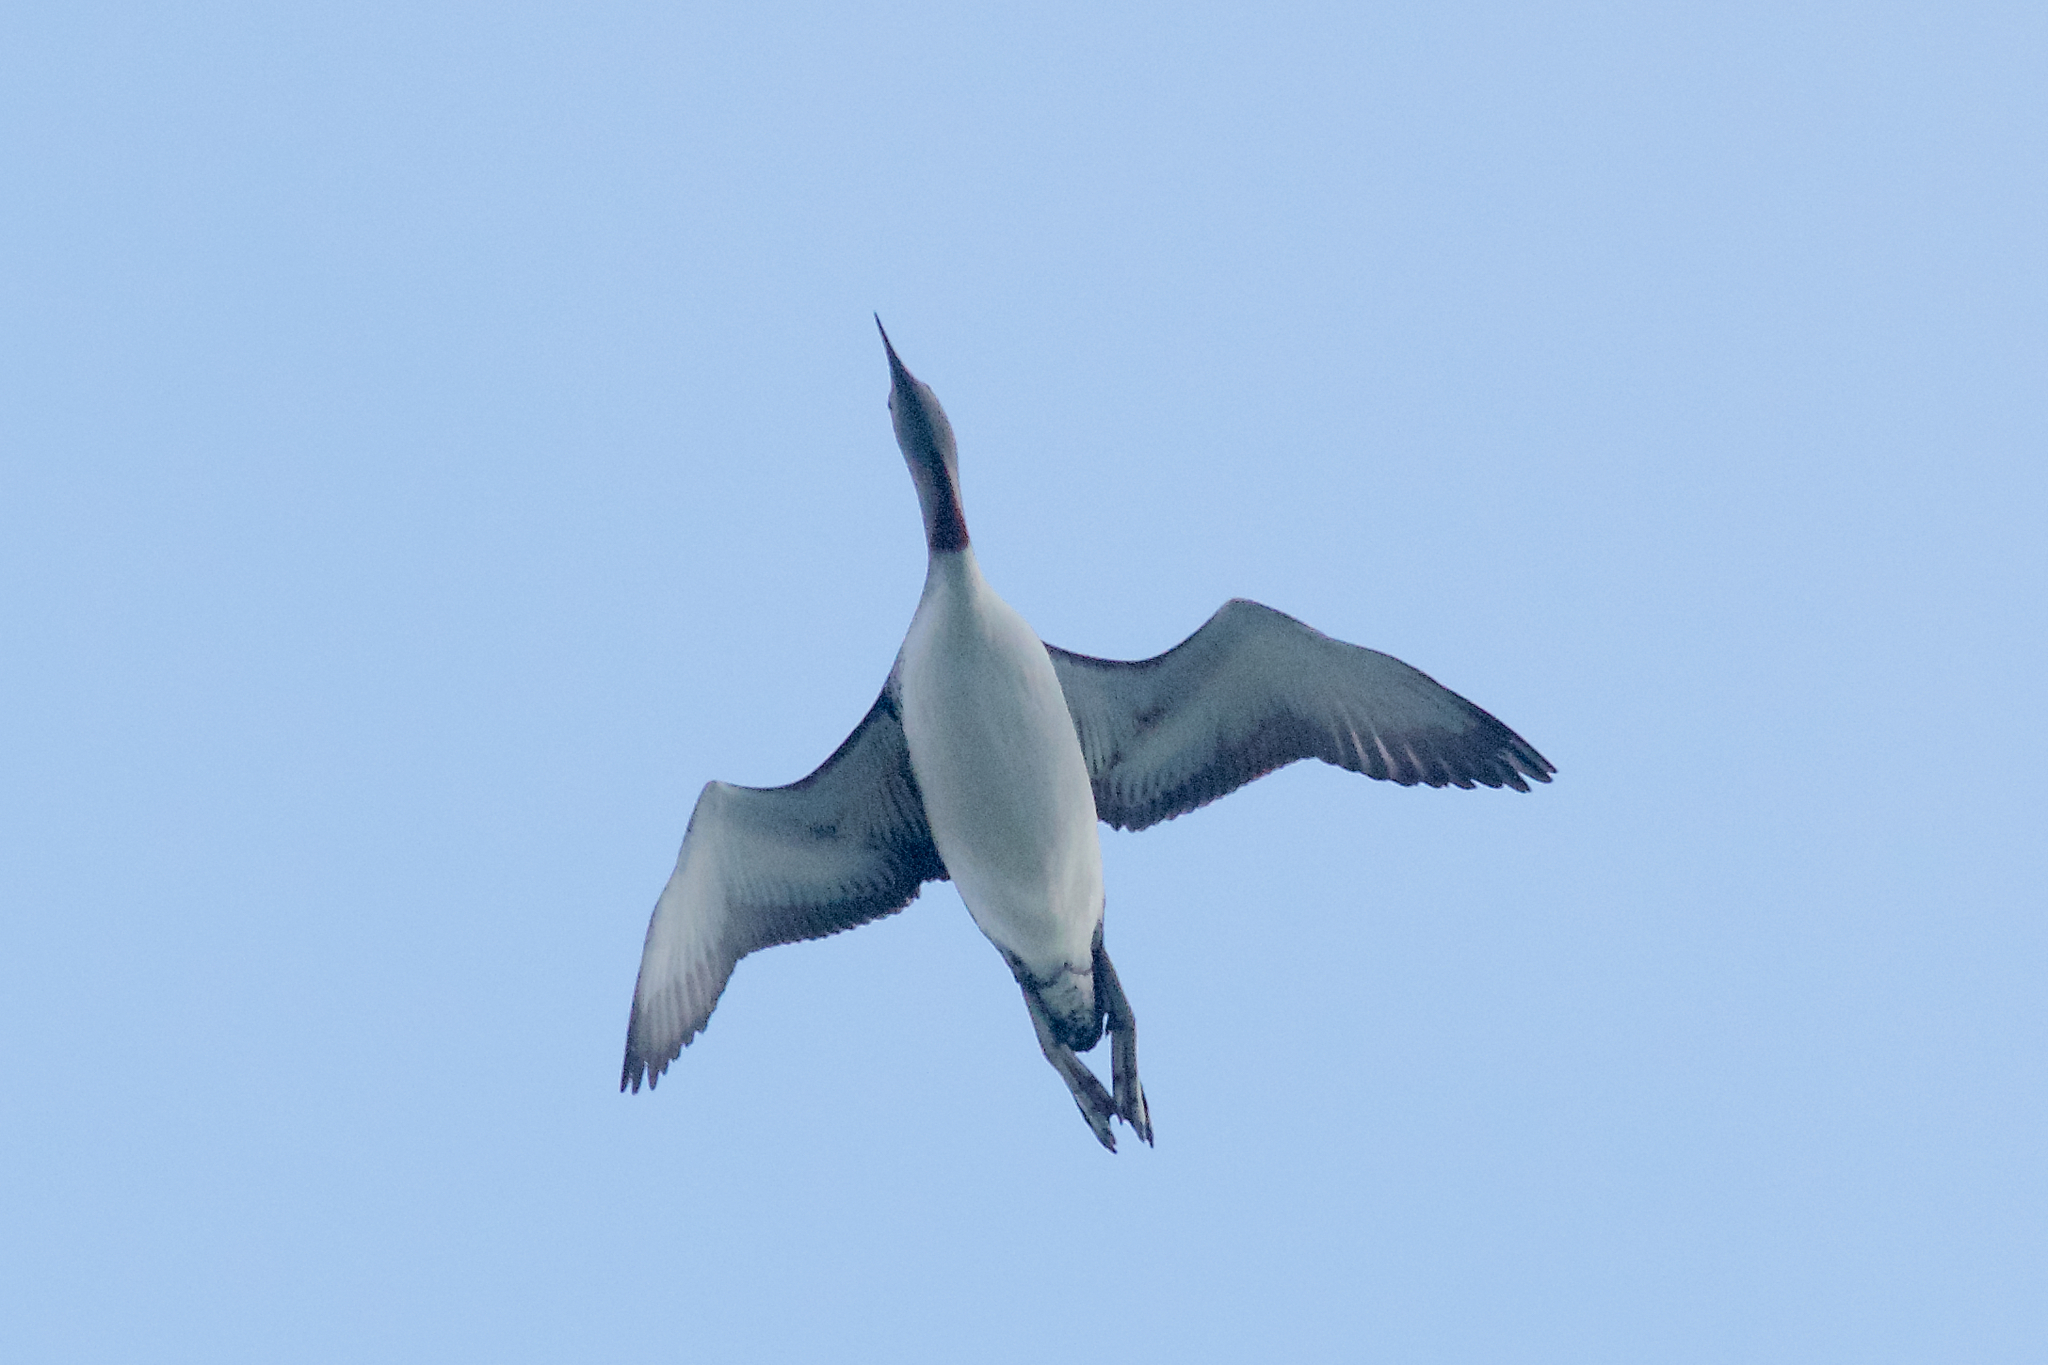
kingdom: Animalia
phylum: Chordata
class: Aves
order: Gaviiformes
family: Gaviidae
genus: Gavia
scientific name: Gavia stellata
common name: Red-throated loon
